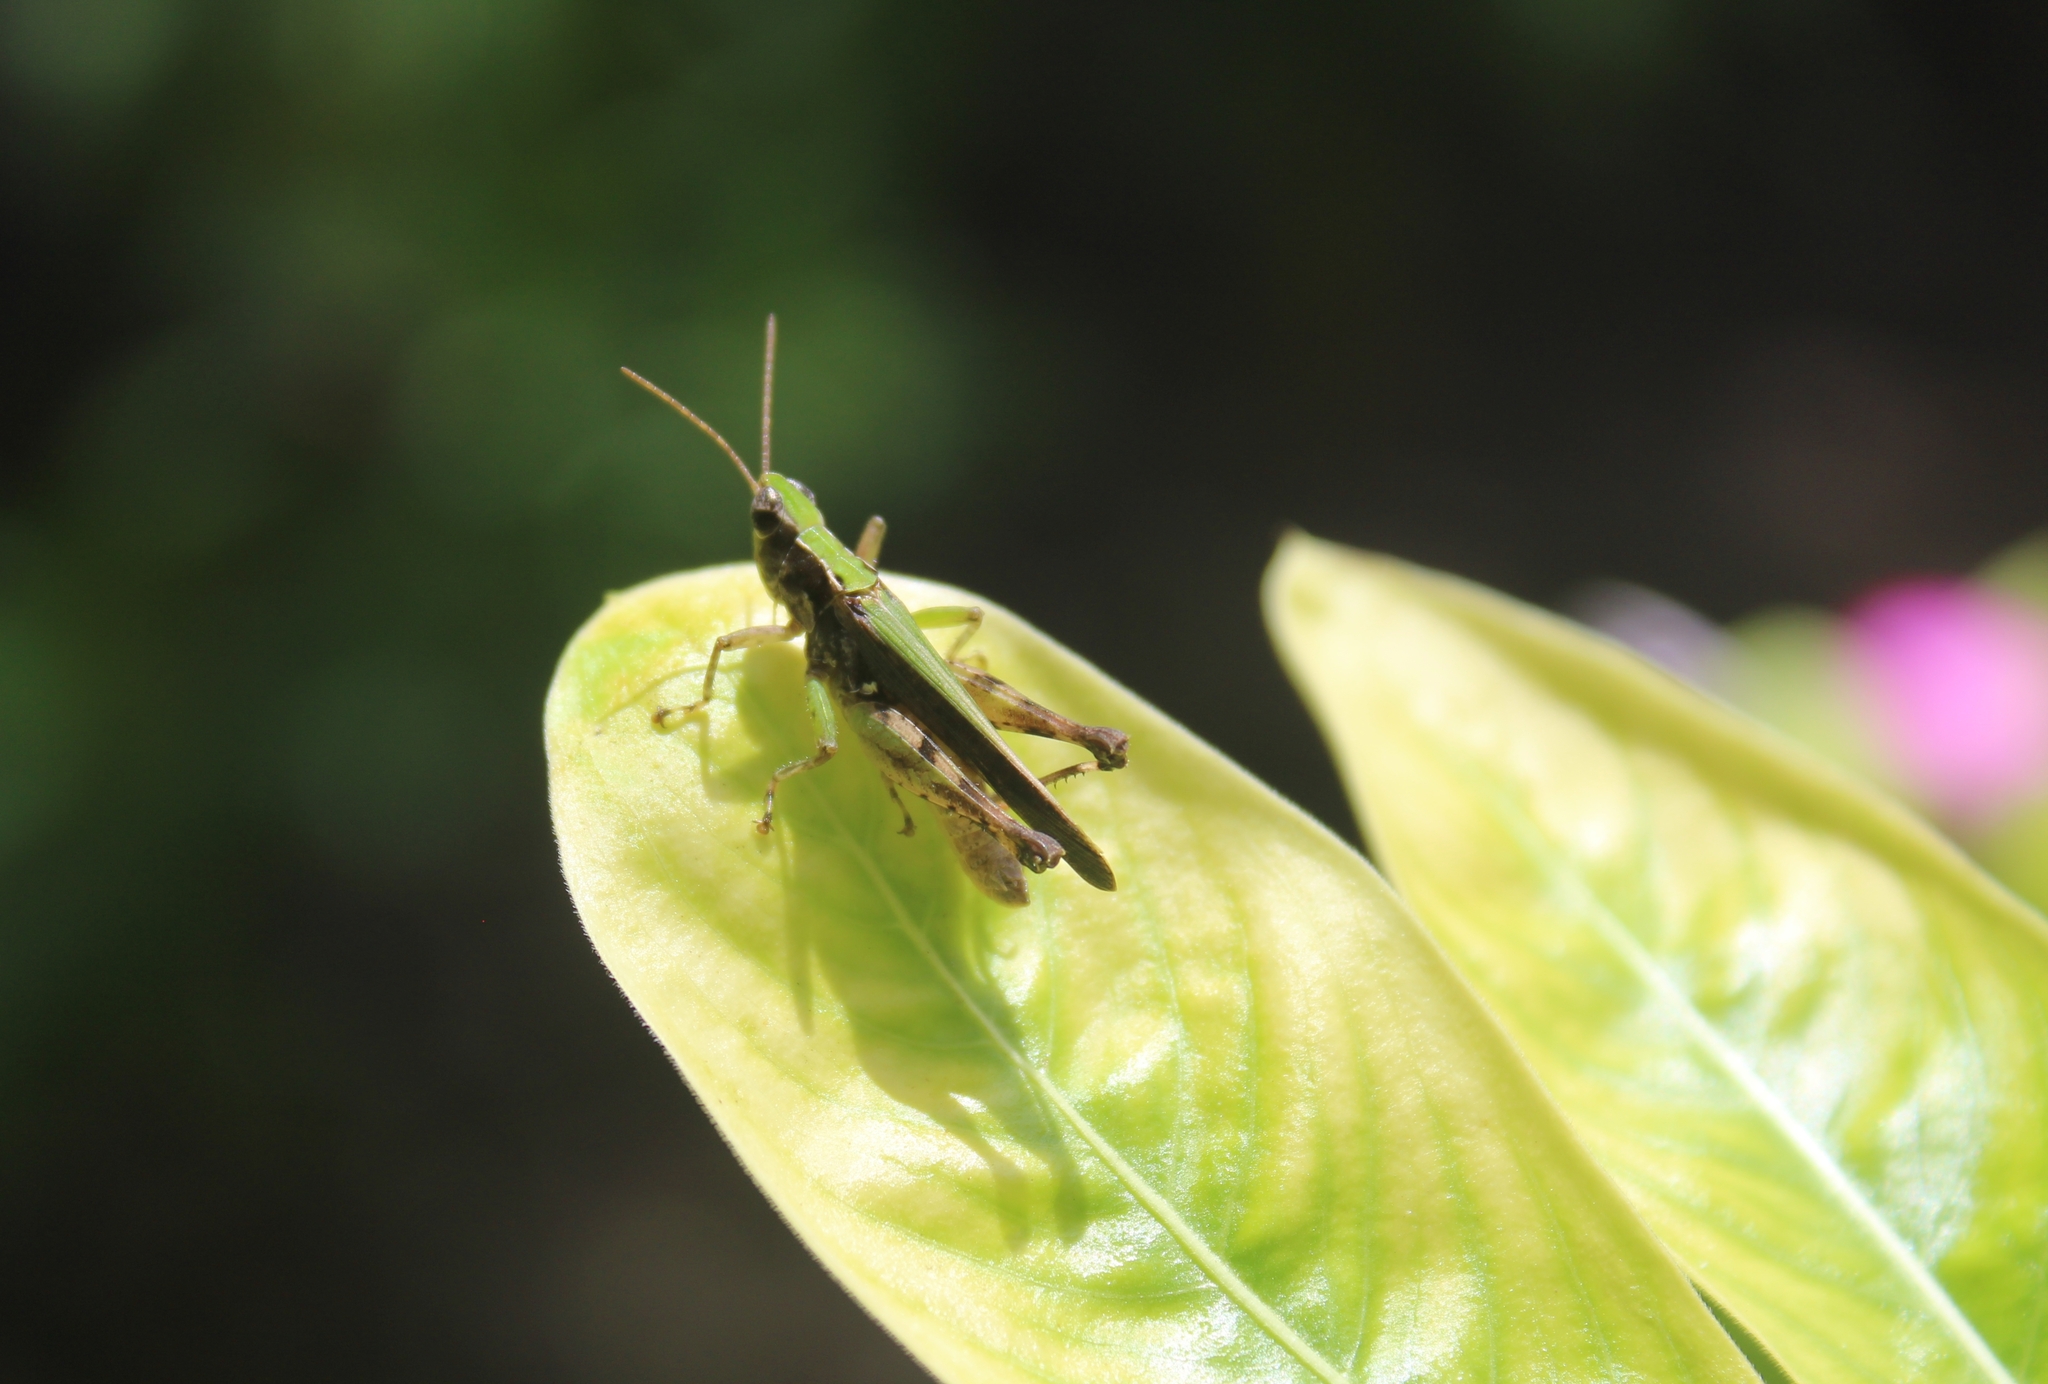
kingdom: Animalia
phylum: Arthropoda
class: Insecta
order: Orthoptera
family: Acrididae
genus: Orphulella
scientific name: Orphulella punctata
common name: Slant-faced grasshopper
